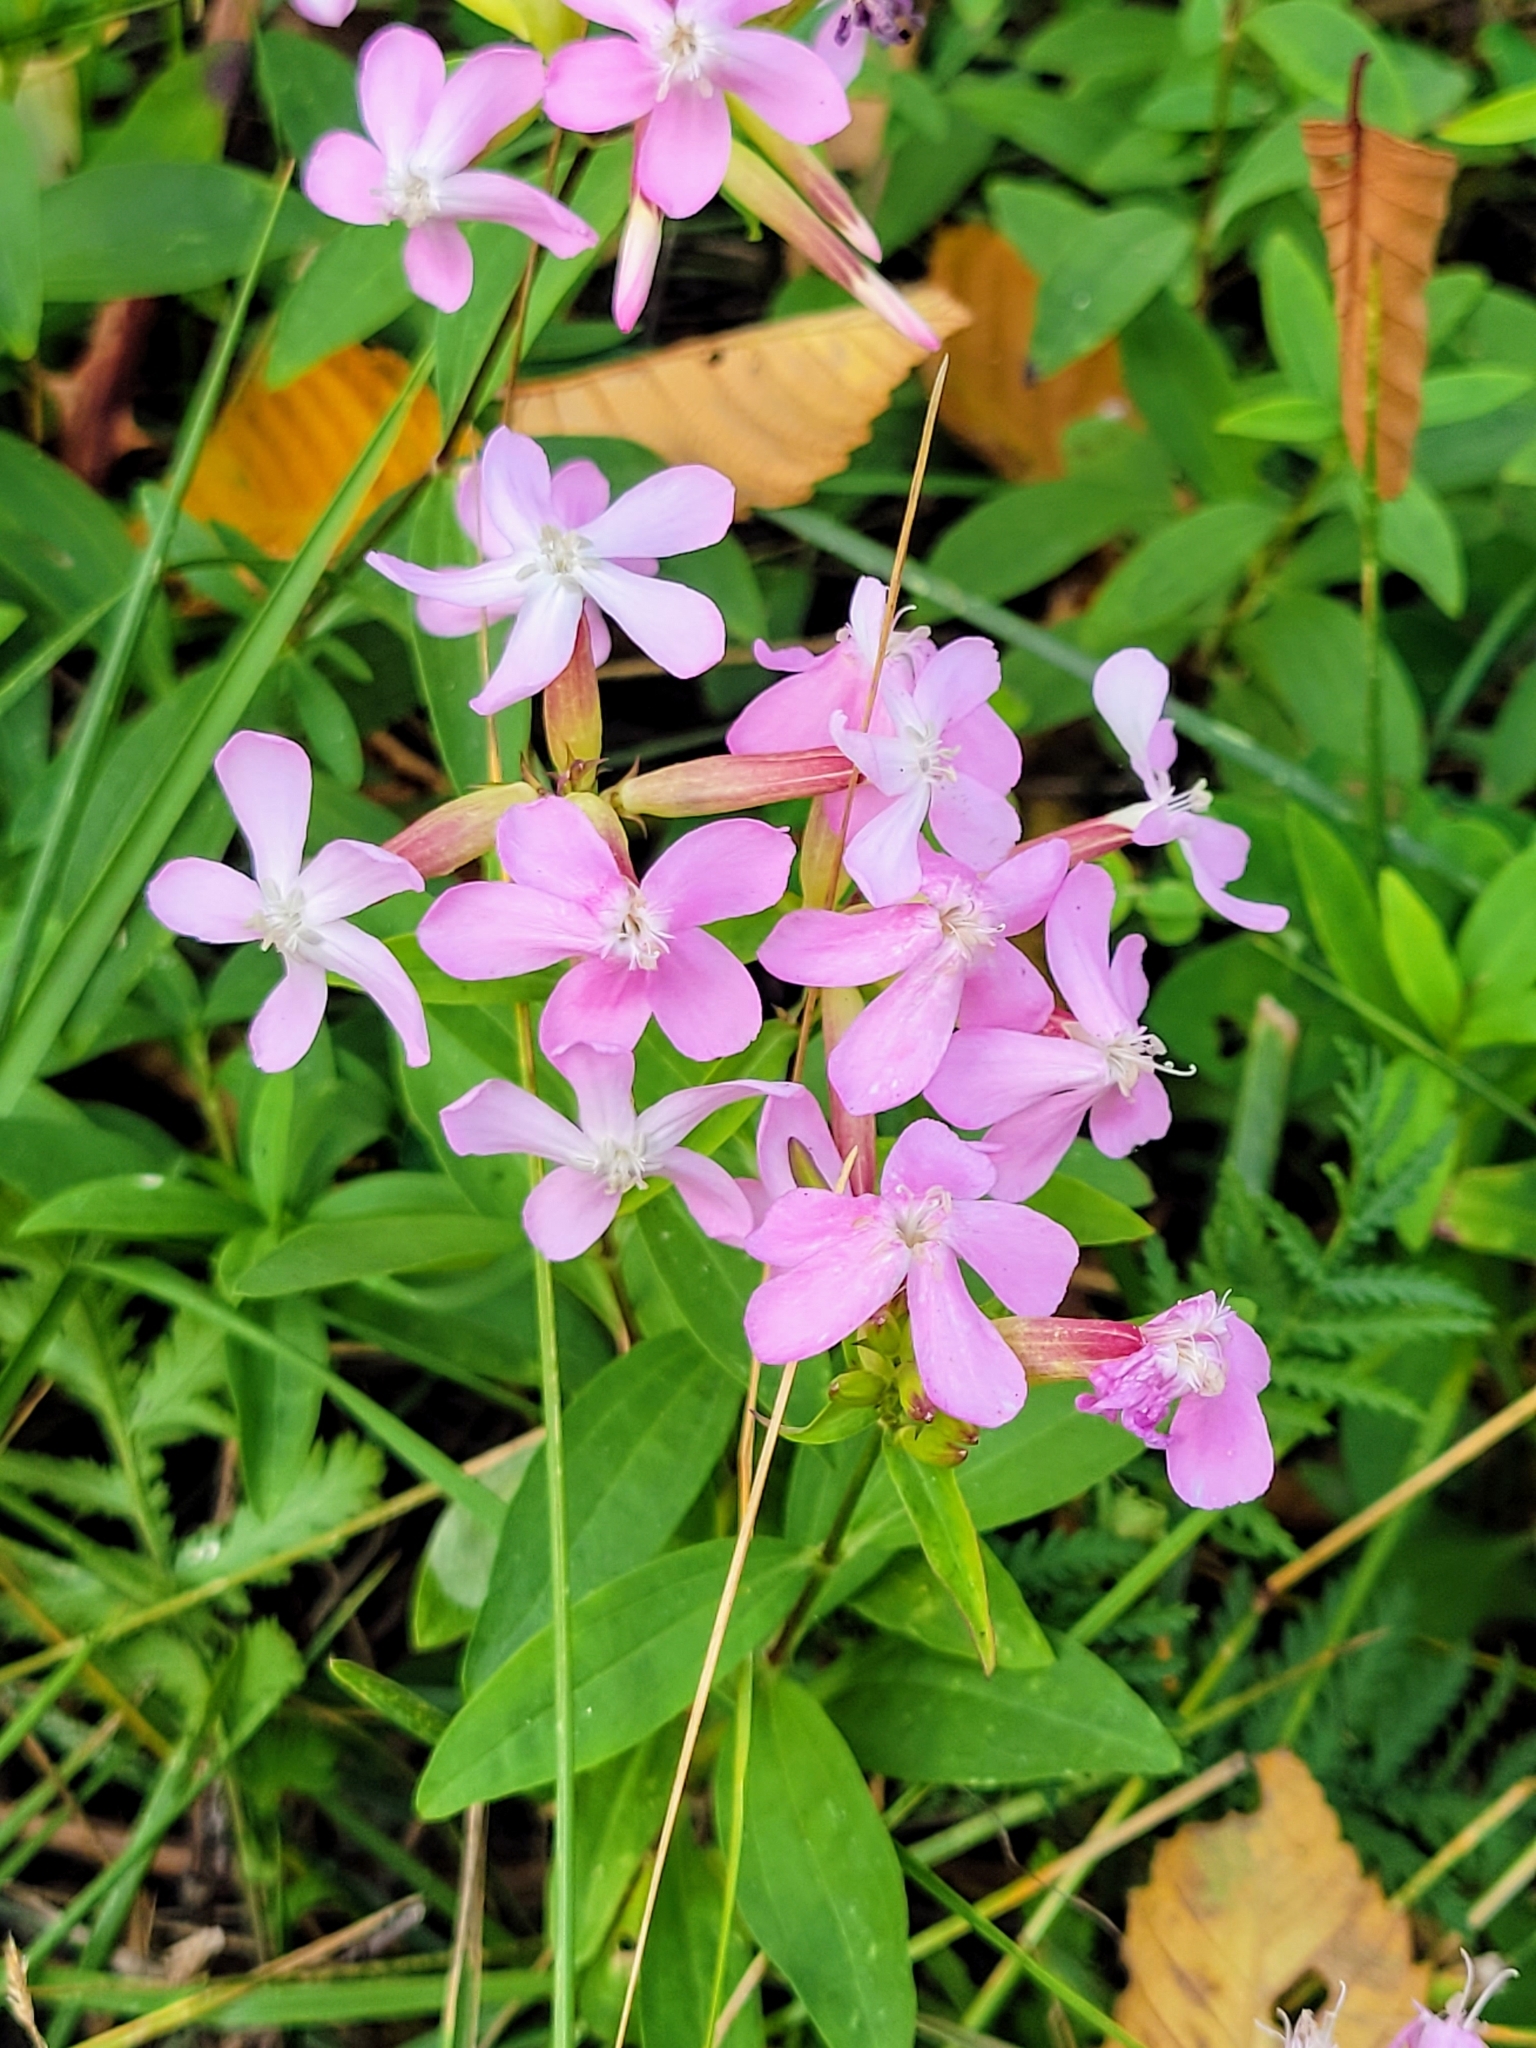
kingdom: Plantae
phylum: Tracheophyta
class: Magnoliopsida
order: Caryophyllales
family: Caryophyllaceae
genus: Saponaria
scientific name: Saponaria officinalis
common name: Soapwort
